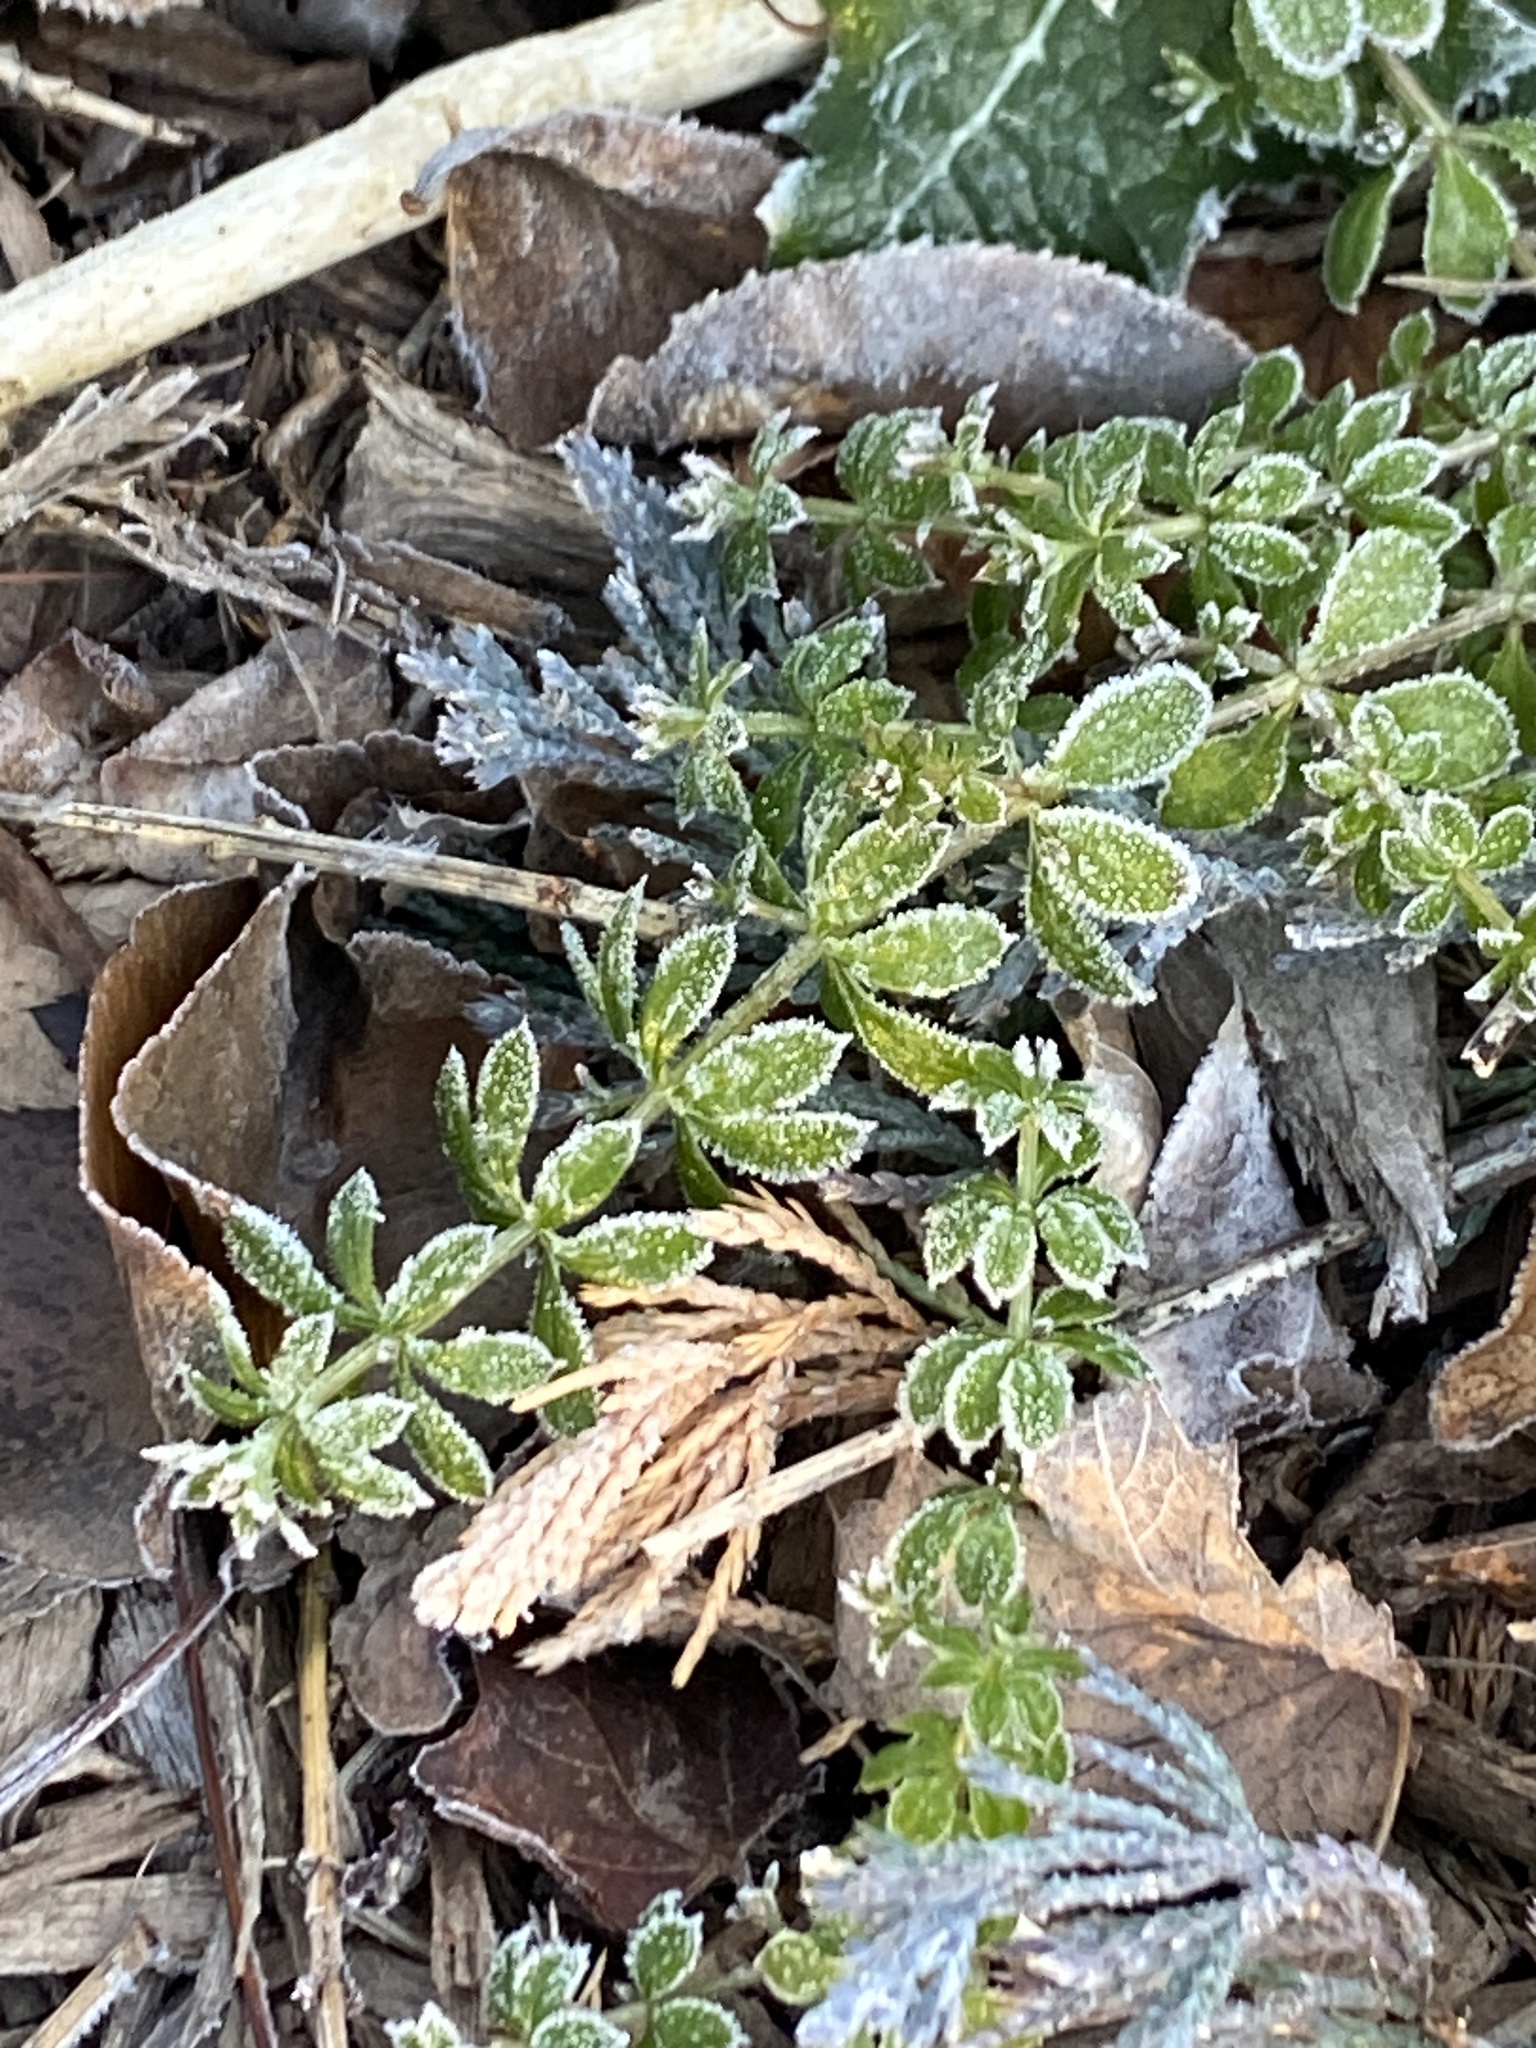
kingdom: Plantae
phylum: Tracheophyta
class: Magnoliopsida
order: Gentianales
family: Rubiaceae
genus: Galium
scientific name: Galium aparine
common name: Cleavers
